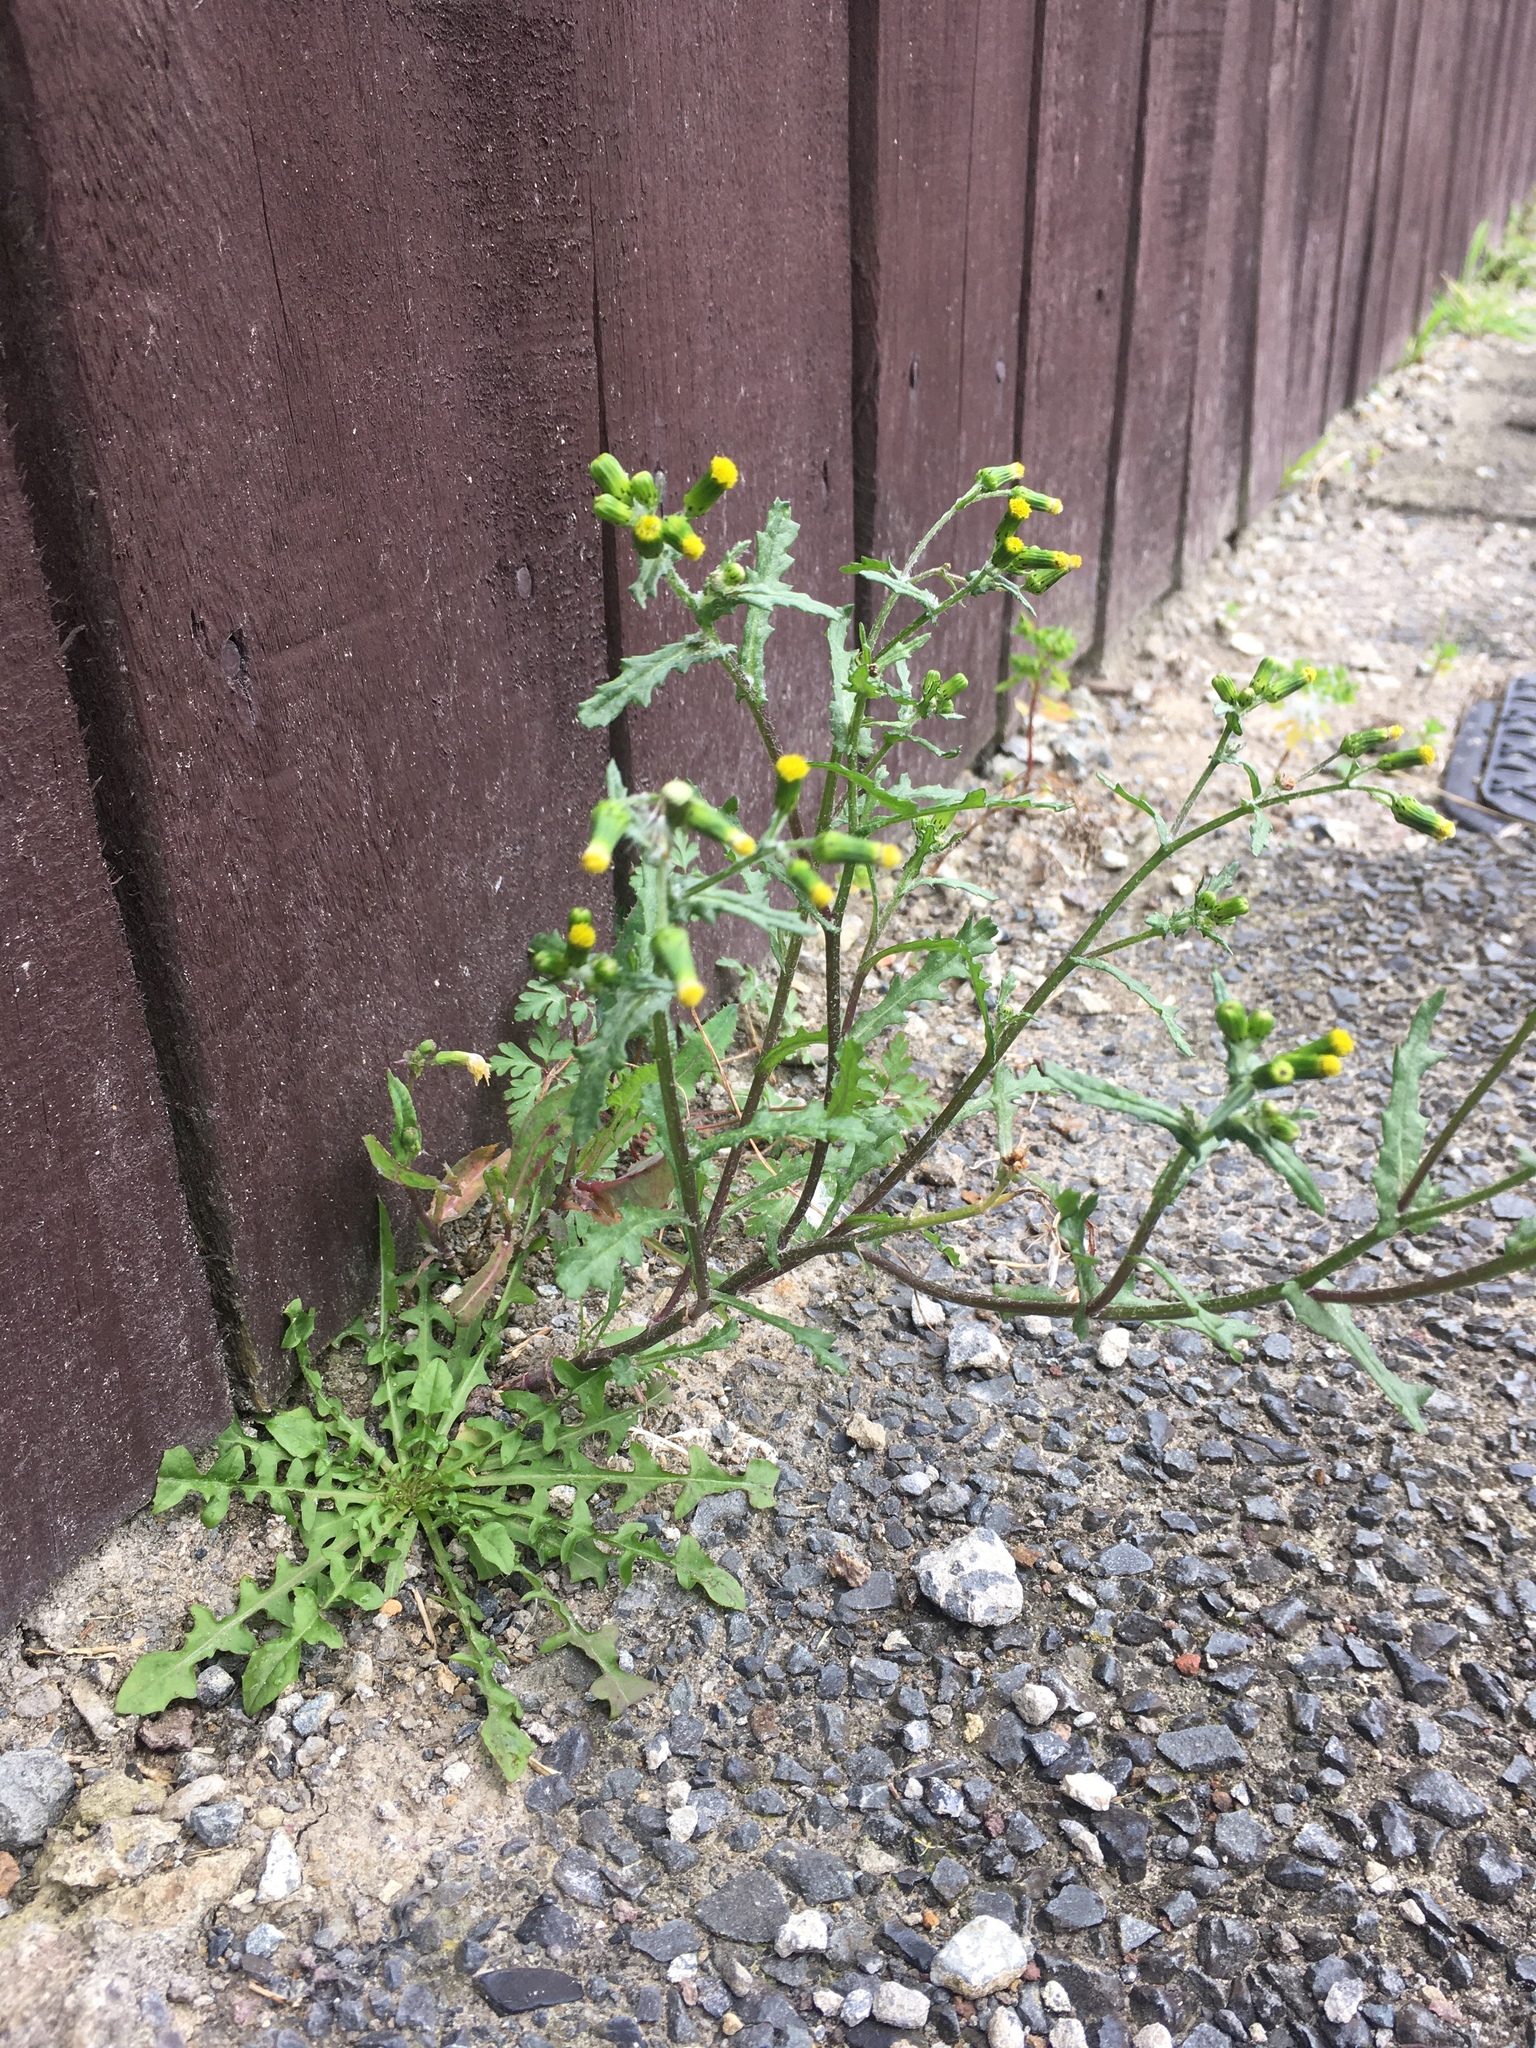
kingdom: Plantae
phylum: Tracheophyta
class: Magnoliopsida
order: Asterales
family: Asteraceae
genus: Senecio
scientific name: Senecio vulgaris
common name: Old-man-in-the-spring
